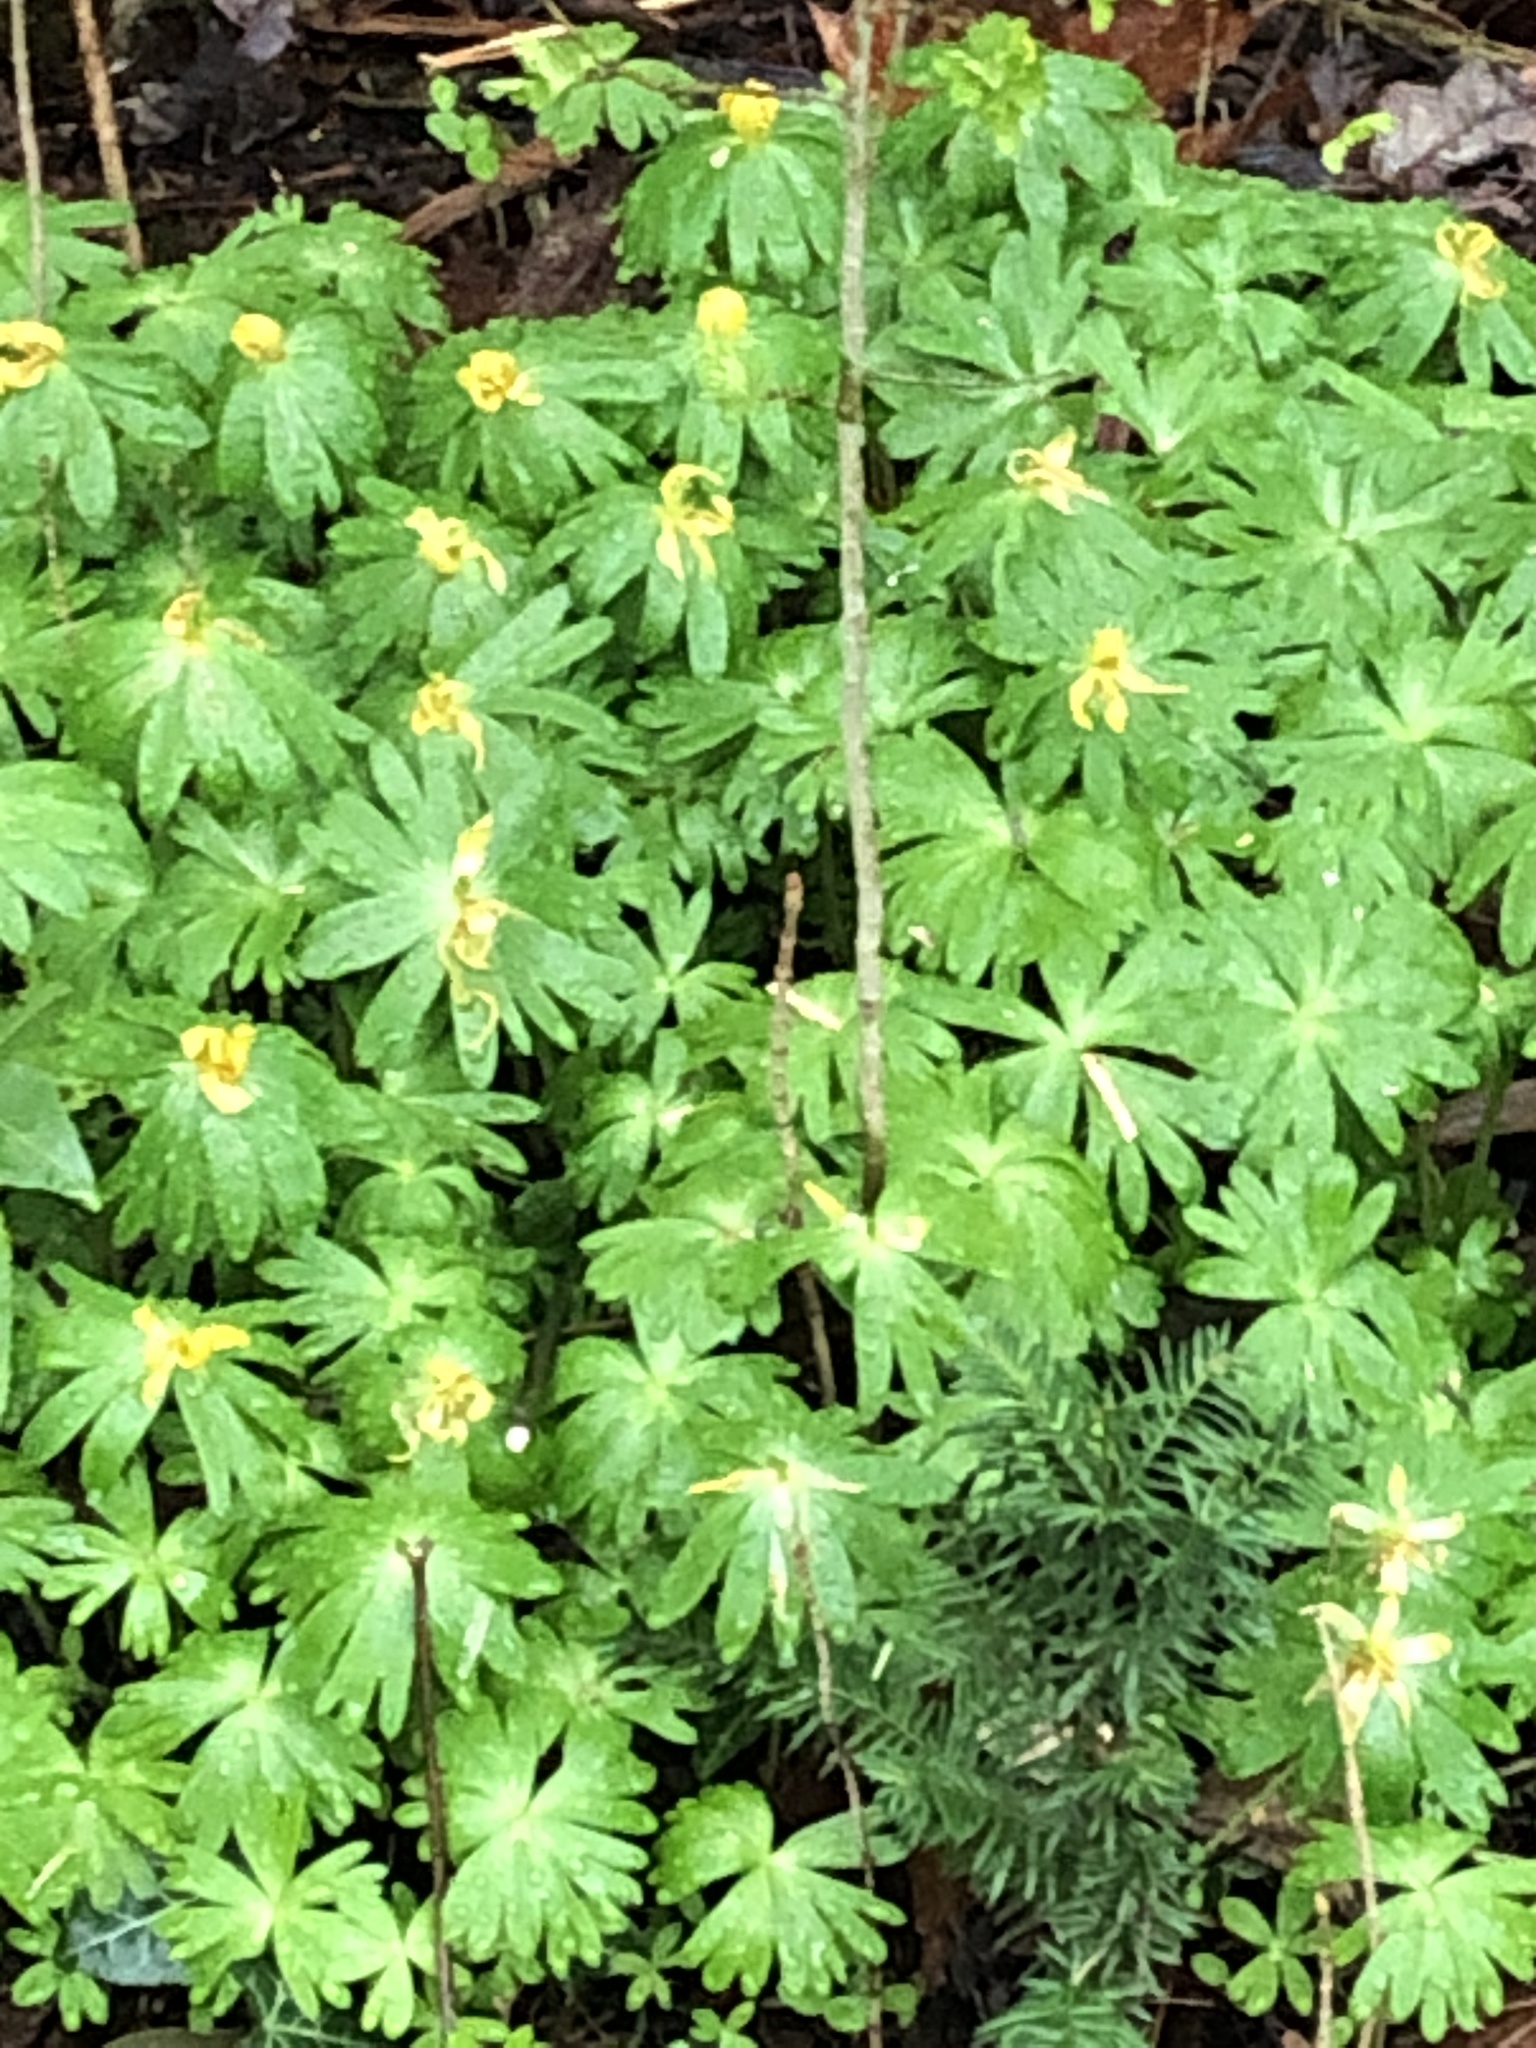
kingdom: Plantae
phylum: Tracheophyta
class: Magnoliopsida
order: Ranunculales
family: Ranunculaceae
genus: Eranthis
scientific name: Eranthis hyemalis
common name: Winter aconite
